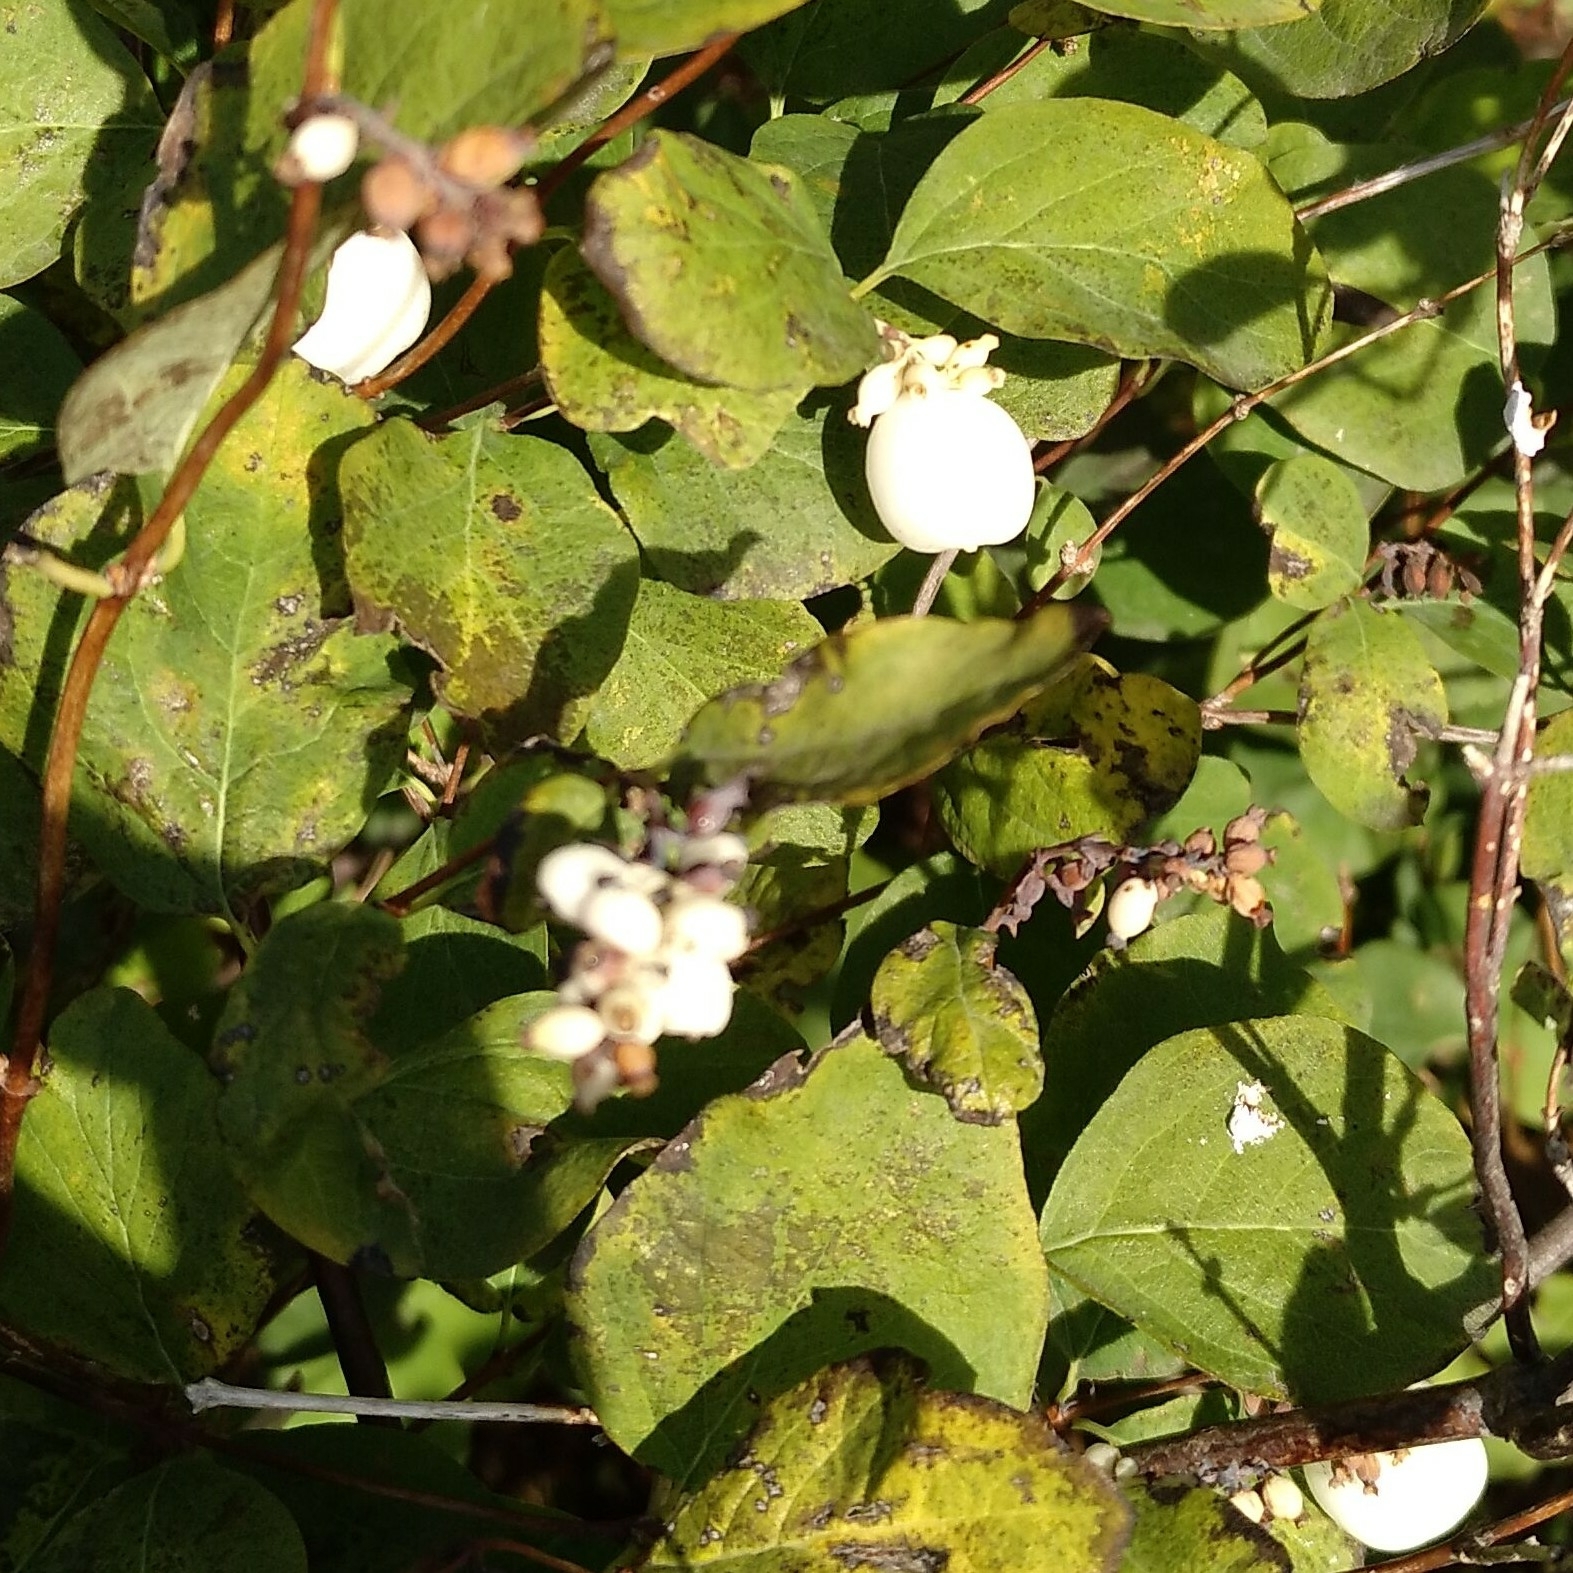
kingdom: Plantae
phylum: Tracheophyta
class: Magnoliopsida
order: Dipsacales
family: Caprifoliaceae
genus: Symphoricarpos
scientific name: Symphoricarpos albus
